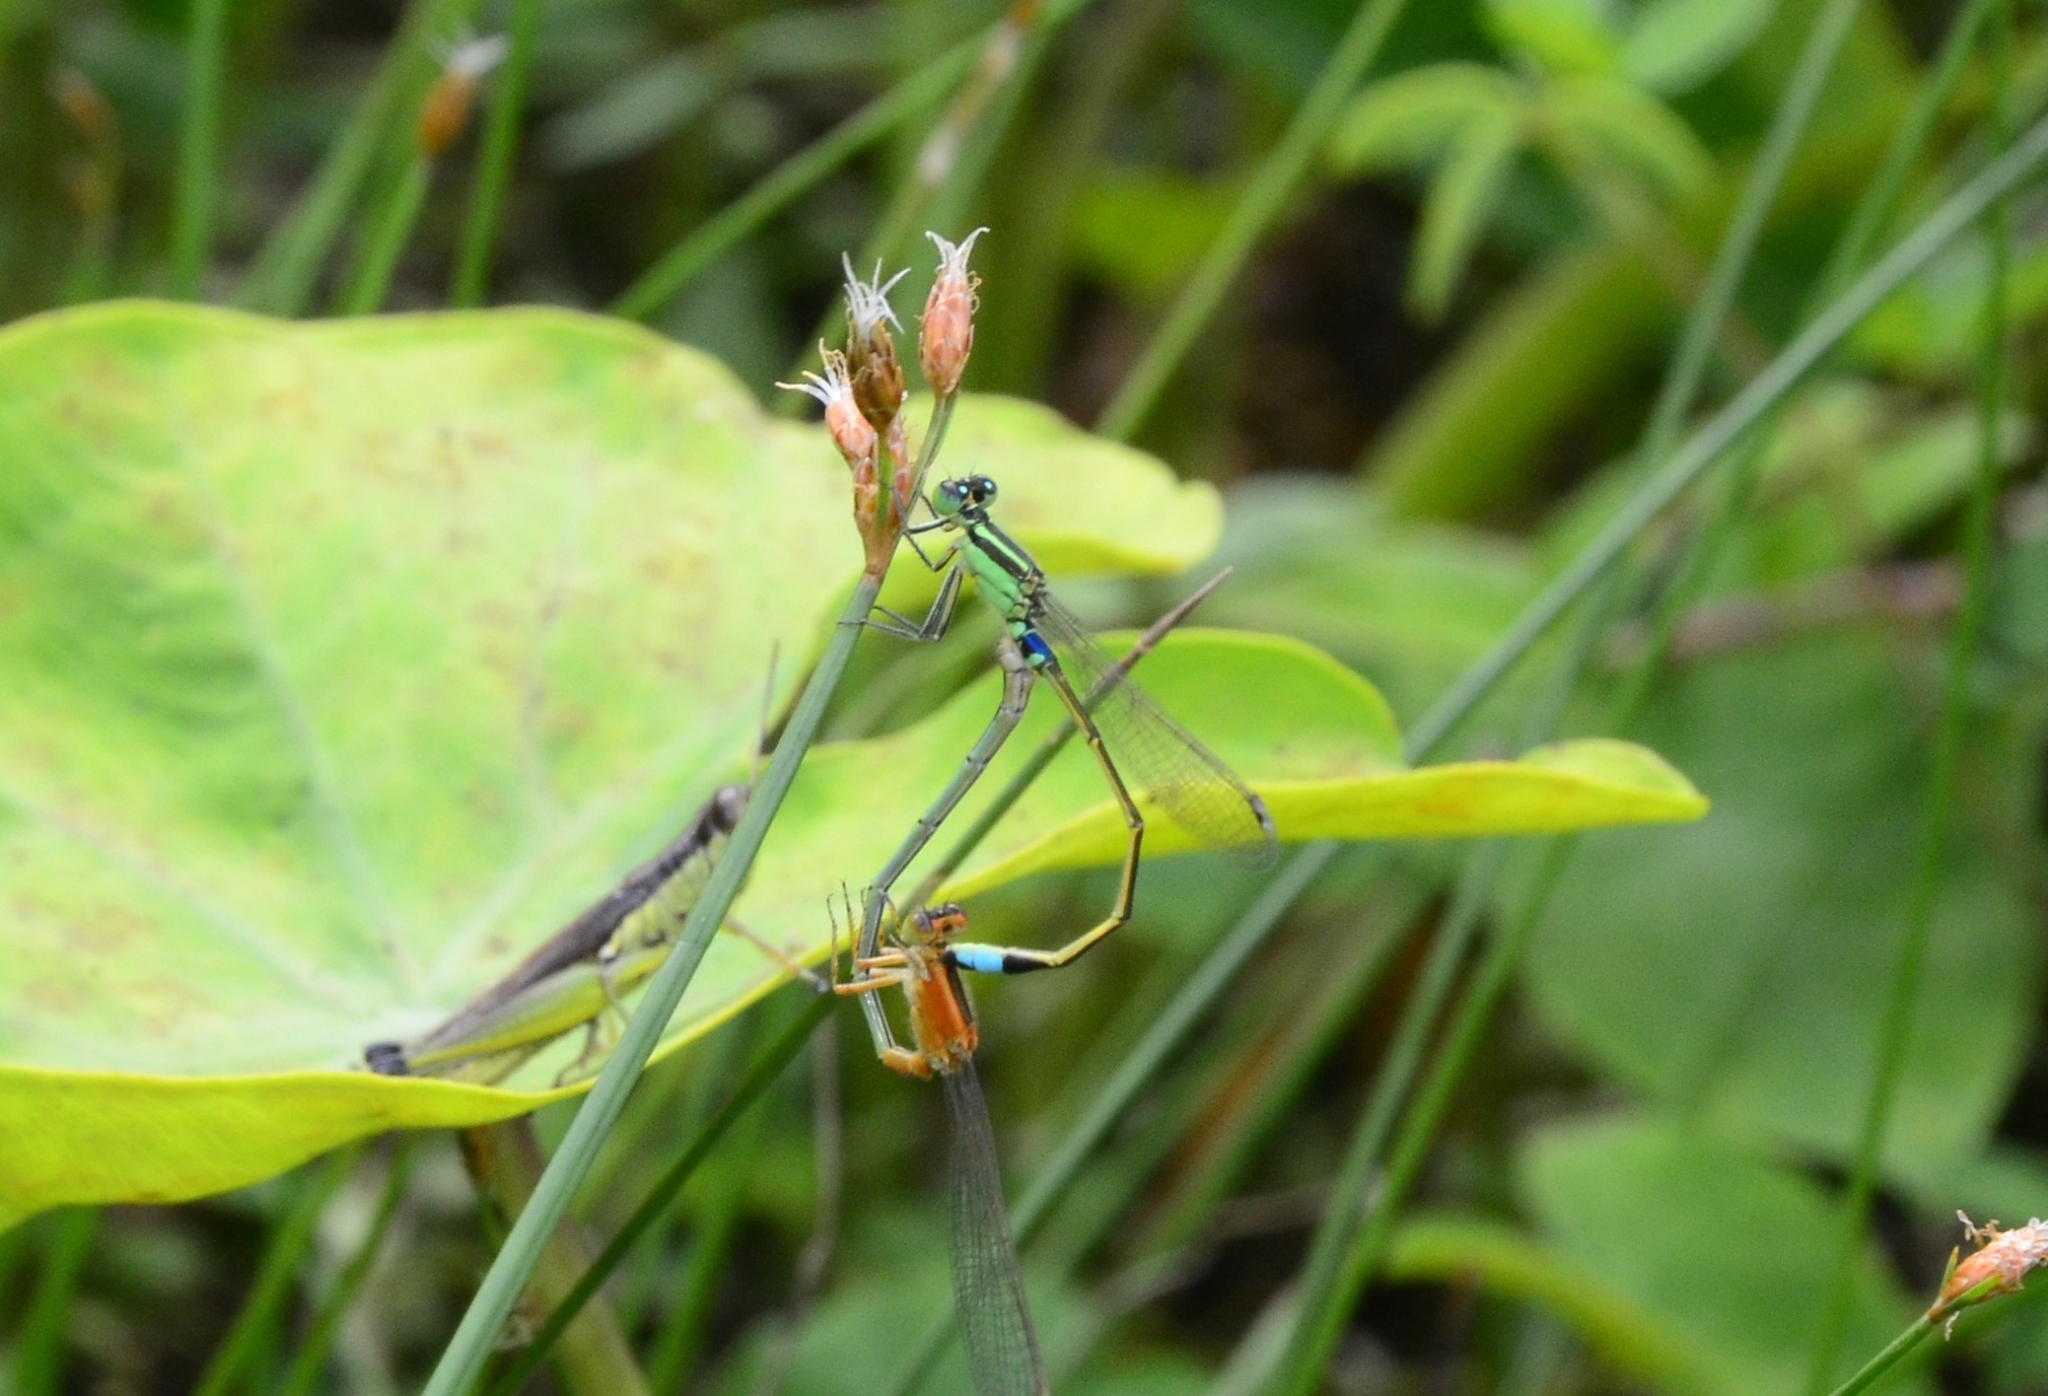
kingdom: Animalia
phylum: Arthropoda
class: Insecta
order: Odonata
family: Coenagrionidae
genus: Ischnura
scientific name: Ischnura senegalensis
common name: Tropical bluetail
